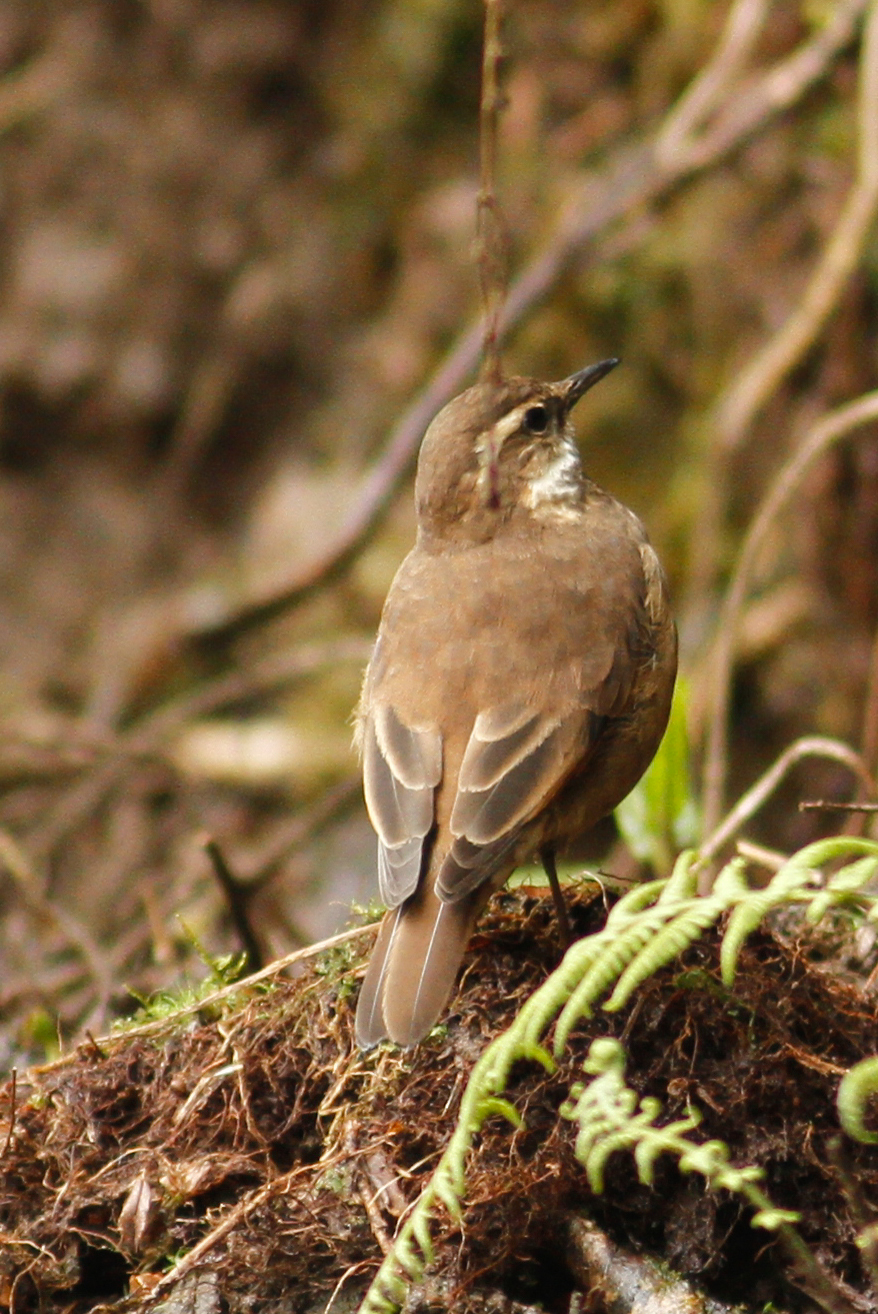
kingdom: Animalia
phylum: Chordata
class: Aves
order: Passeriformes
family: Furnariidae
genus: Cinclodes
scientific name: Cinclodes albidiventris
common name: Chestnut-winged cinclodes
